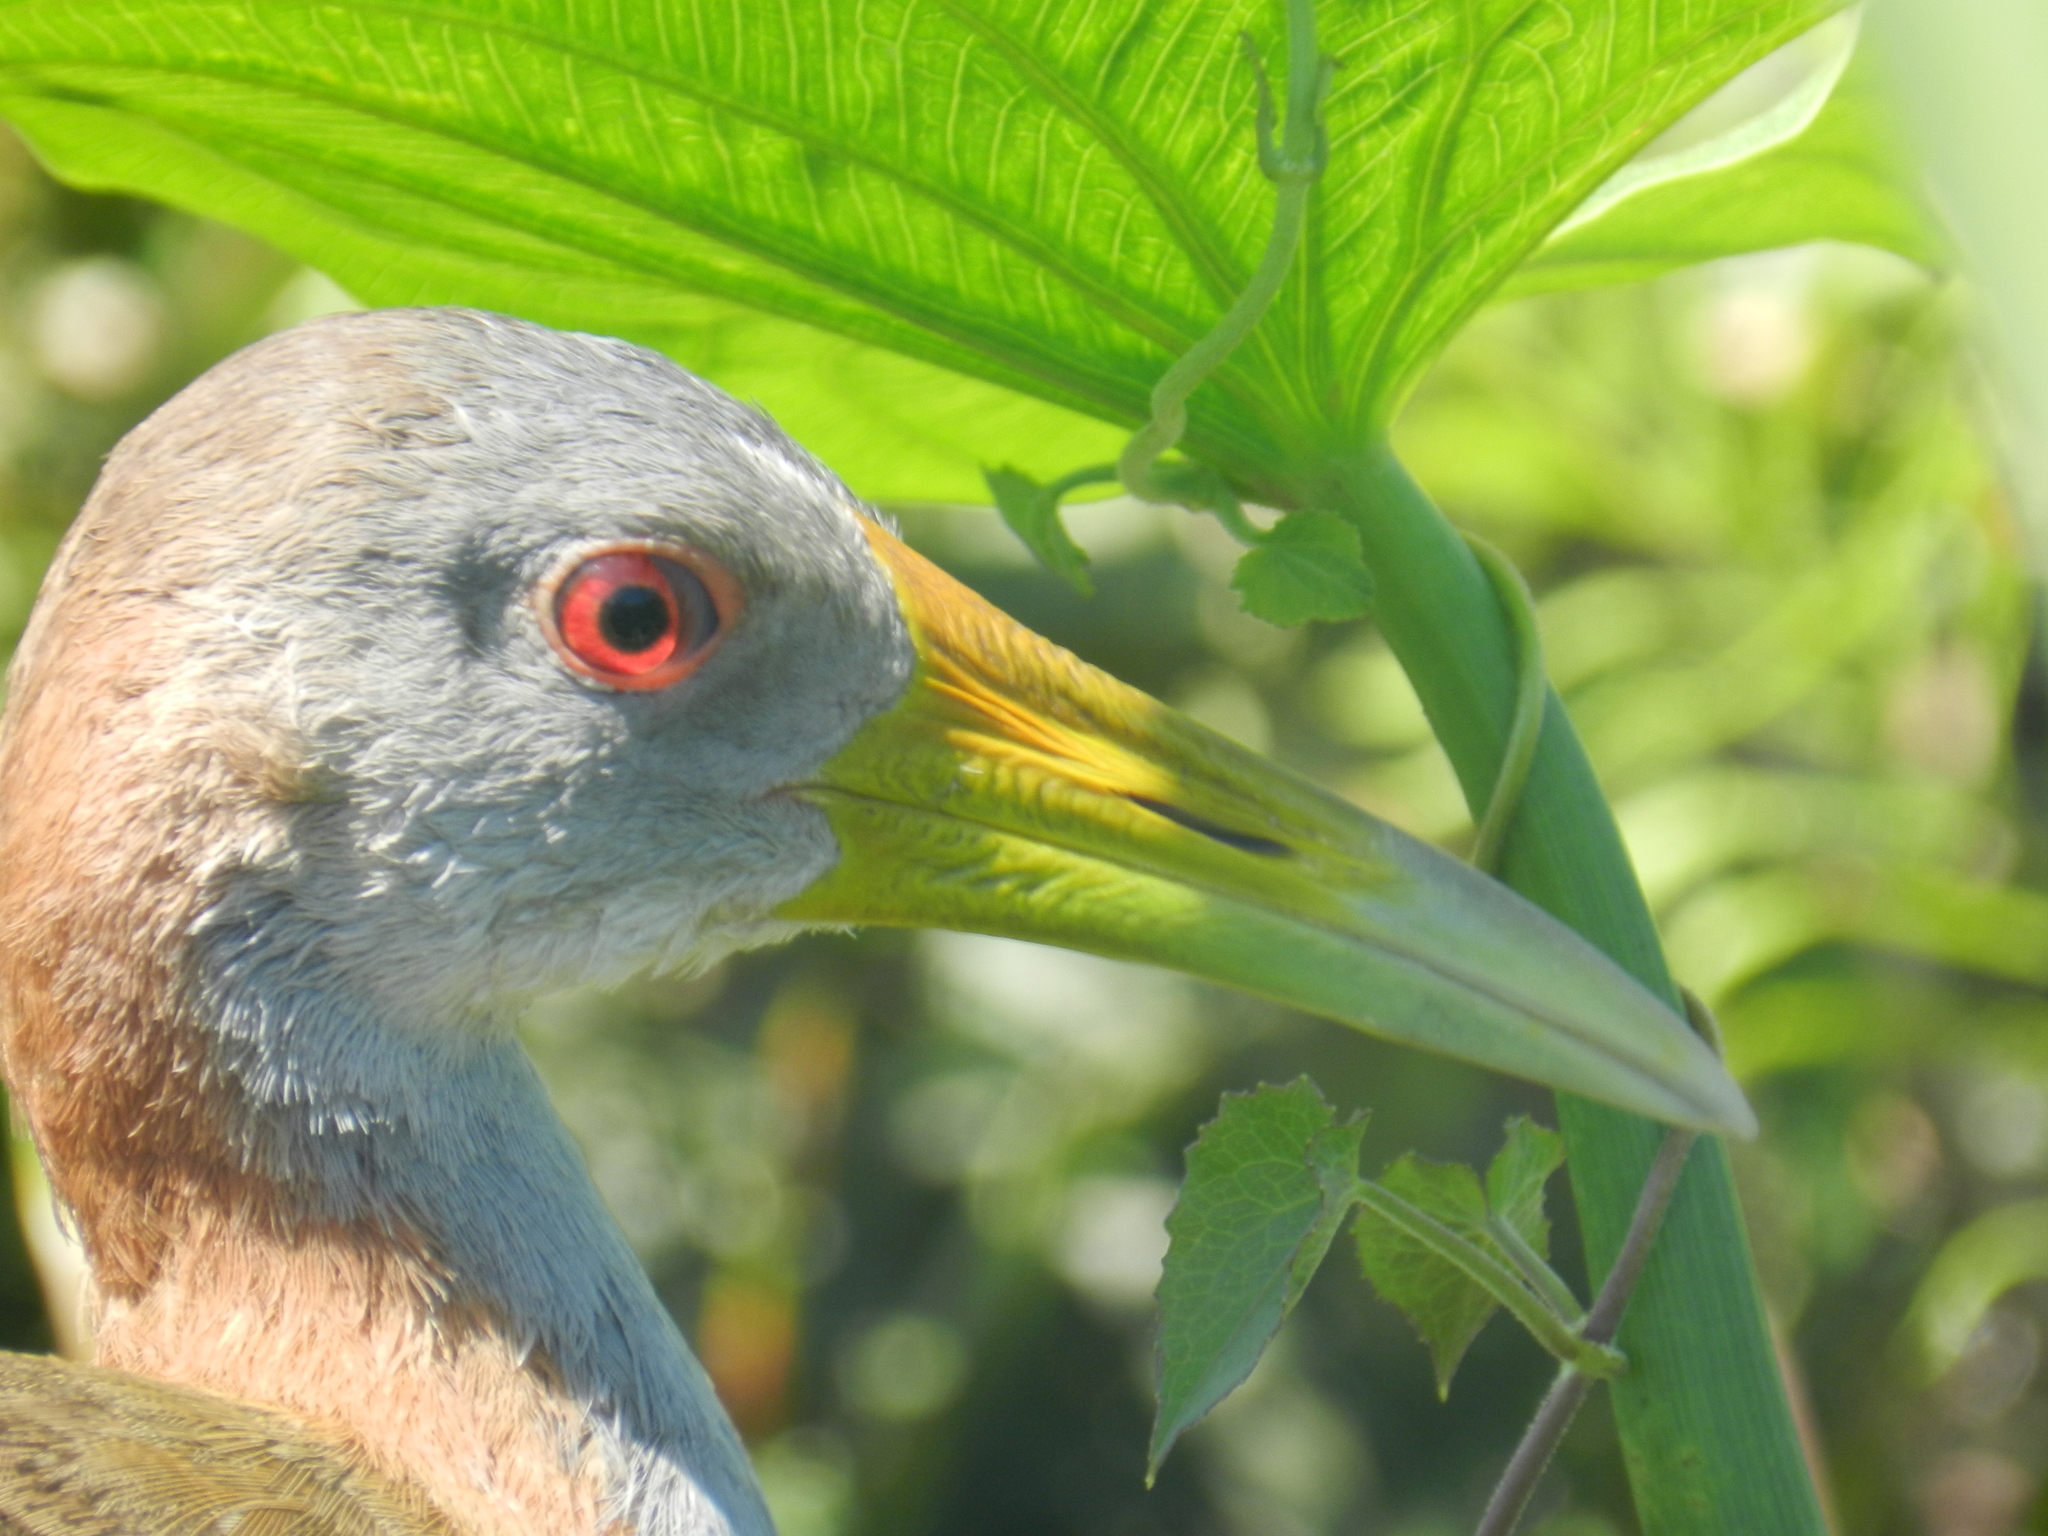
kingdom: Animalia
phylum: Chordata
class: Aves
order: Gruiformes
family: Rallidae
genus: Aramides
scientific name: Aramides ypecaha
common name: Giant wood rail
